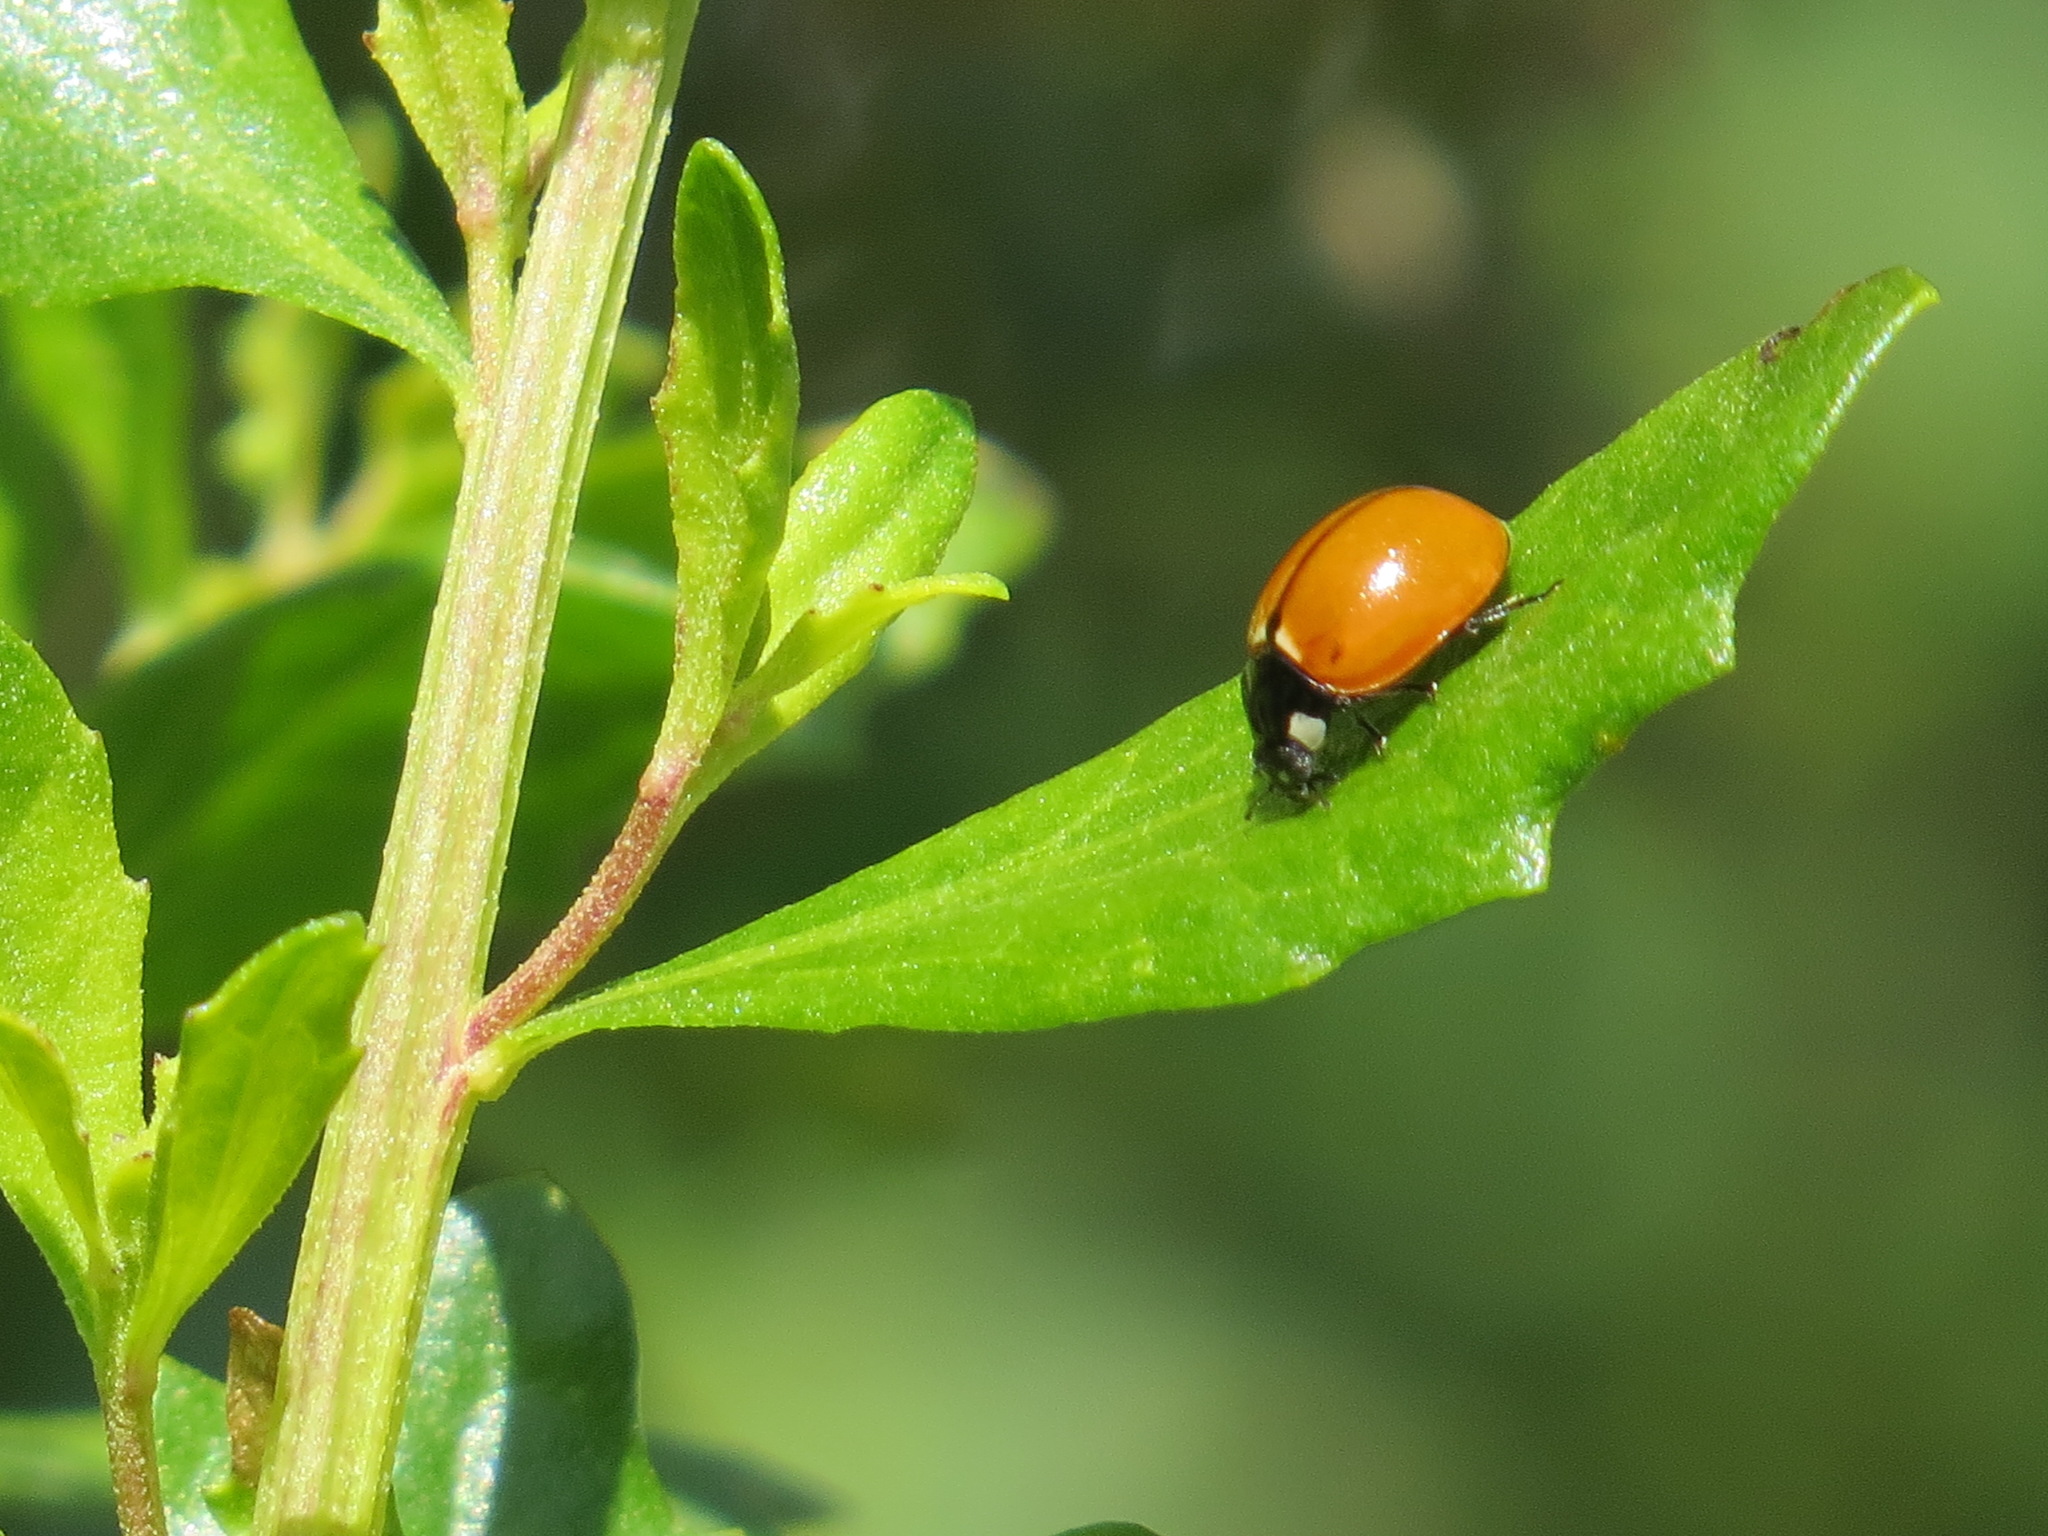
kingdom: Animalia
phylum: Arthropoda
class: Insecta
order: Coleoptera
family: Coccinellidae
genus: Coccinella
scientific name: Coccinella californica
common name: Lady beetle
